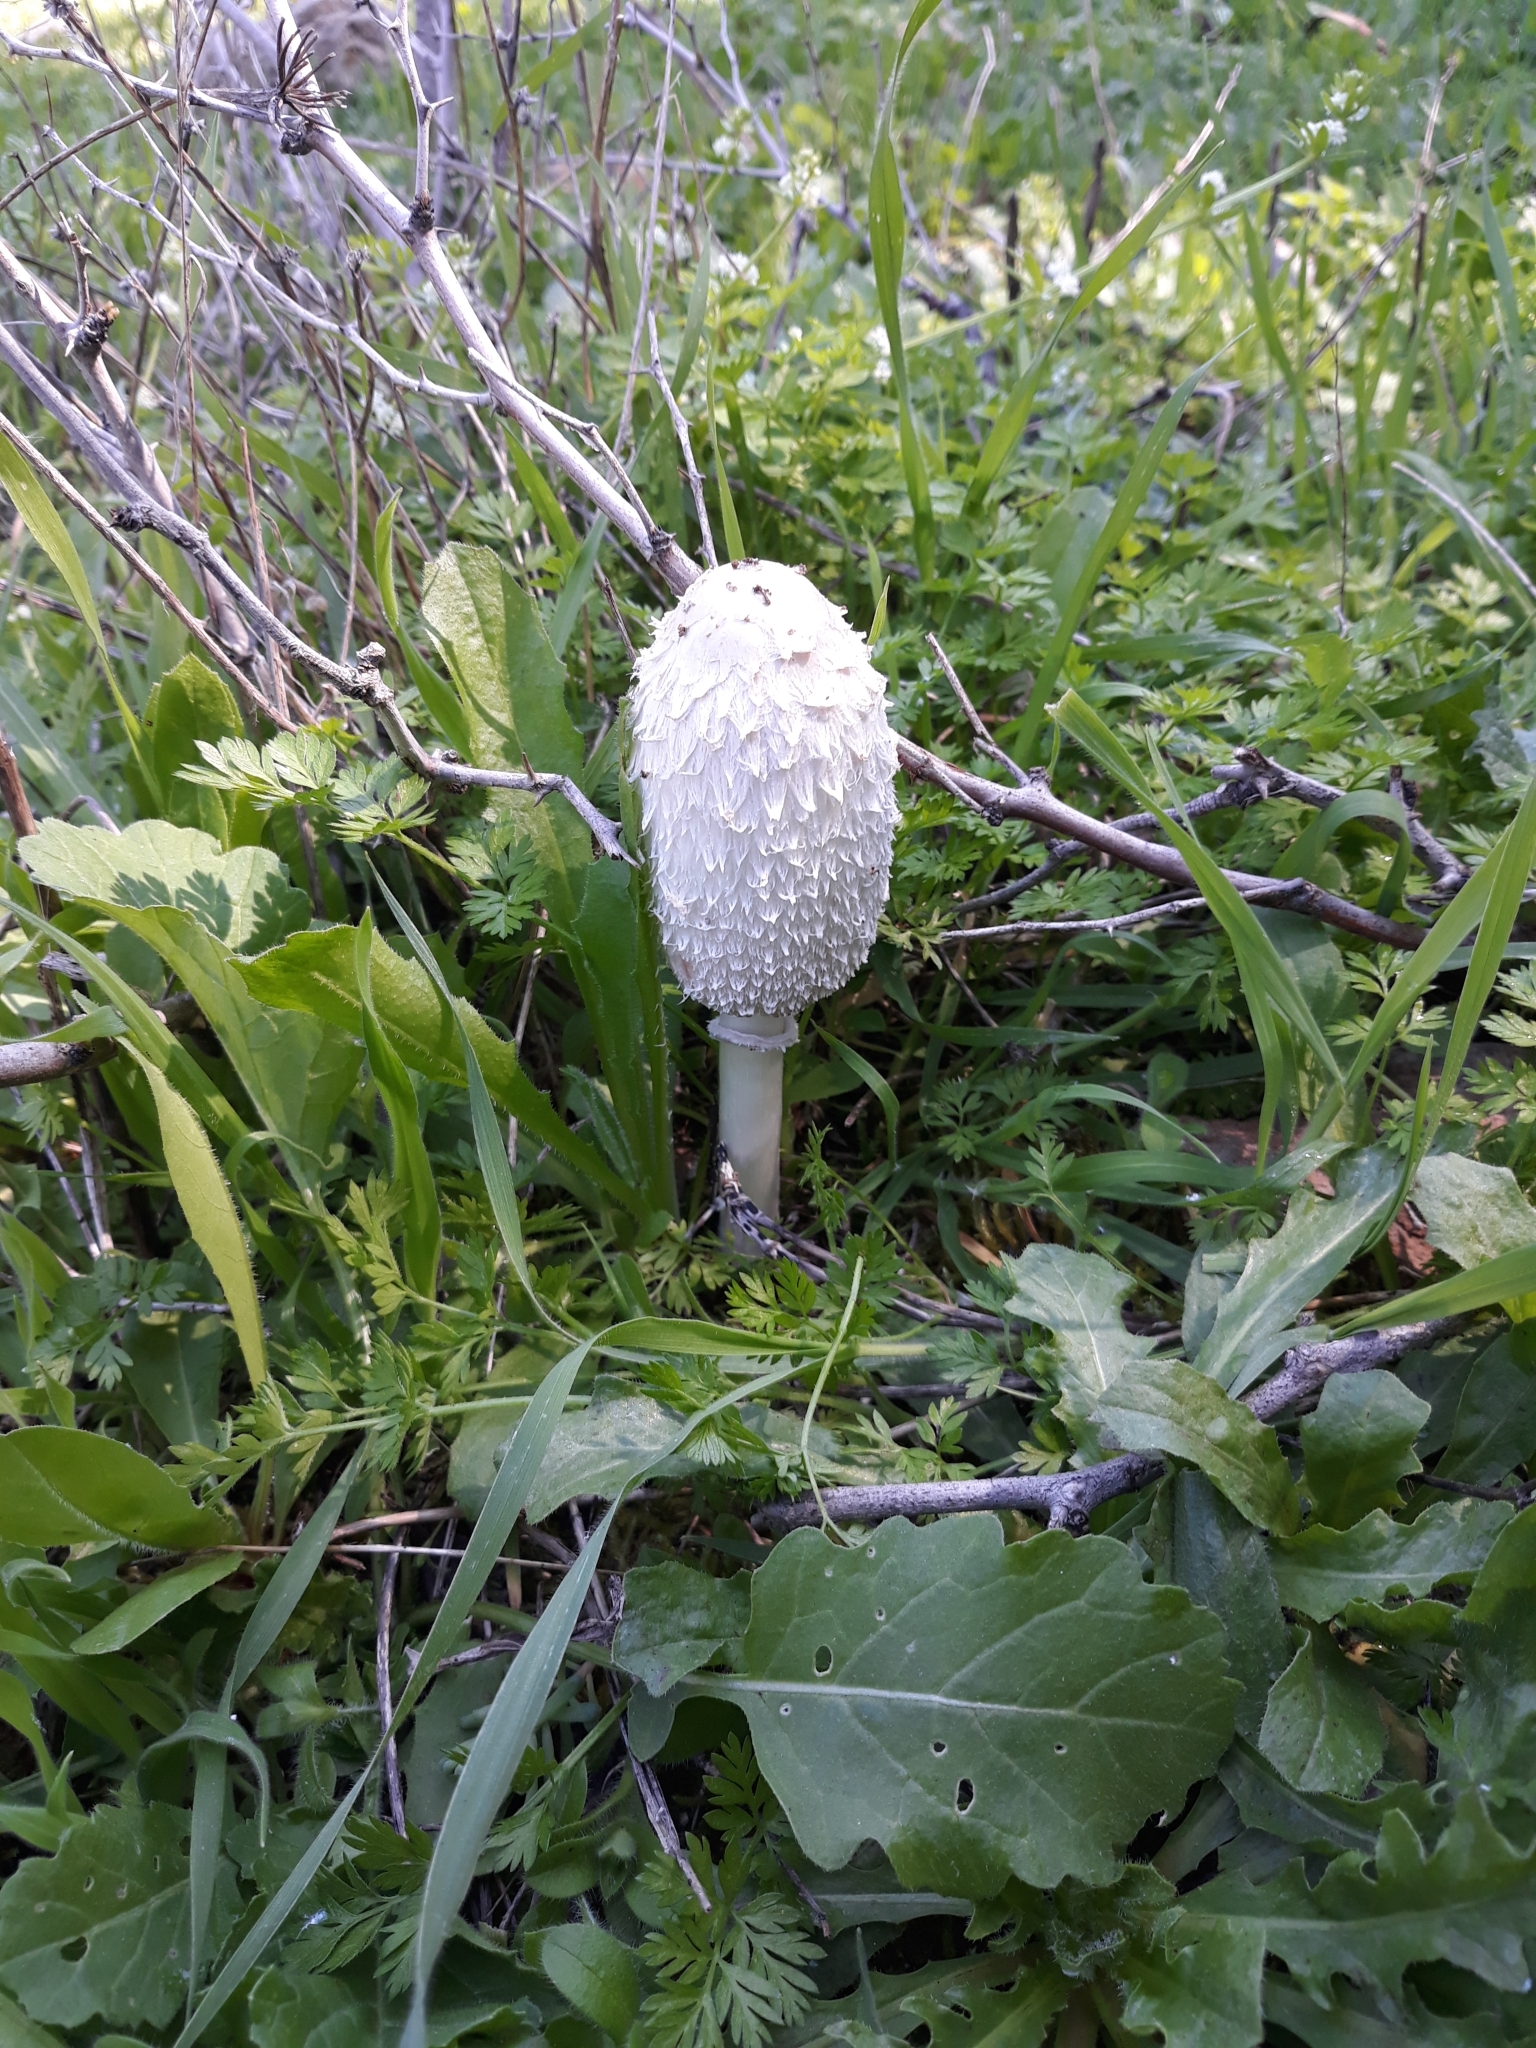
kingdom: Fungi
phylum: Basidiomycota
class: Agaricomycetes
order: Agaricales
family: Agaricaceae
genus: Coprinus
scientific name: Coprinus comatus
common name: Lawyer's wig
